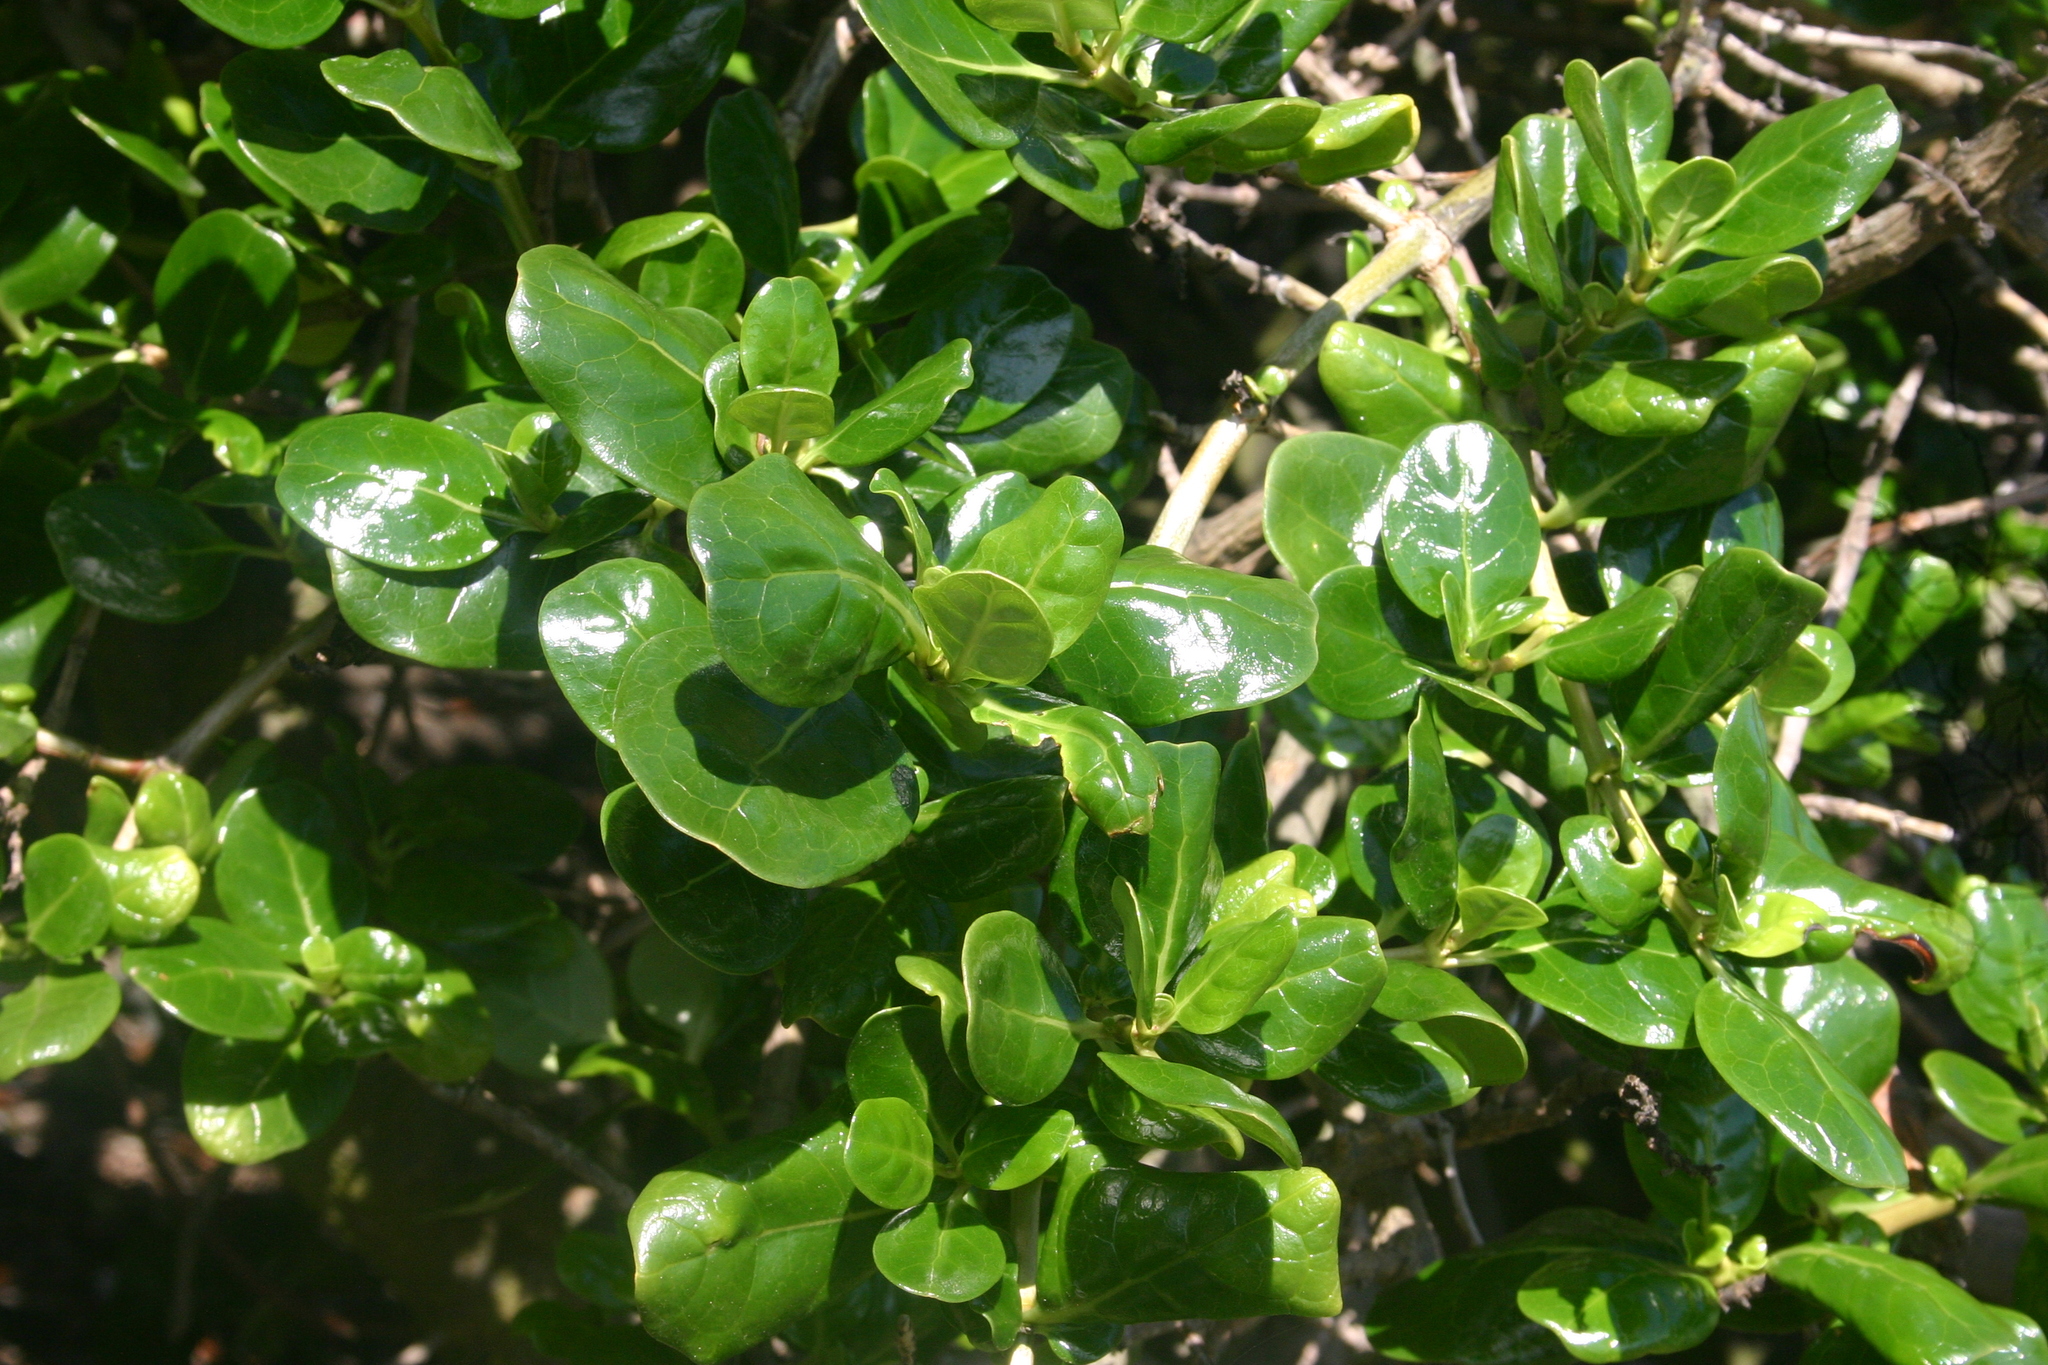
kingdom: Plantae
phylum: Tracheophyta
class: Magnoliopsida
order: Gentianales
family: Rubiaceae
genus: Coprosma
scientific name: Coprosma repens
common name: Tree bedstraw
